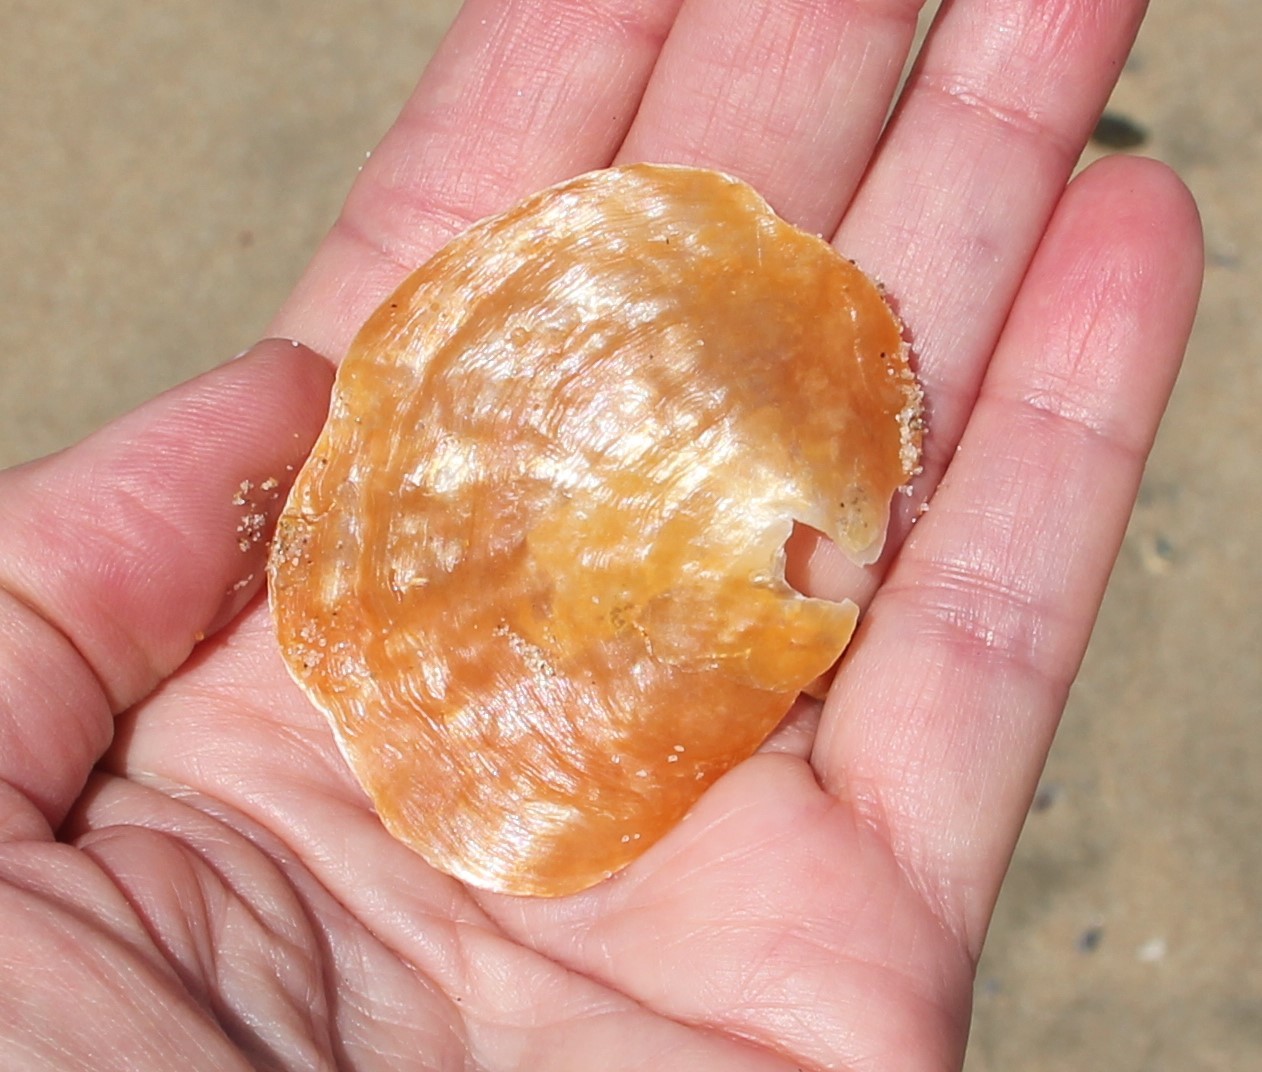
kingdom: Animalia
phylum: Mollusca
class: Bivalvia
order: Pectinida
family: Anomiidae
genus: Anomia
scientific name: Anomia peruviana
